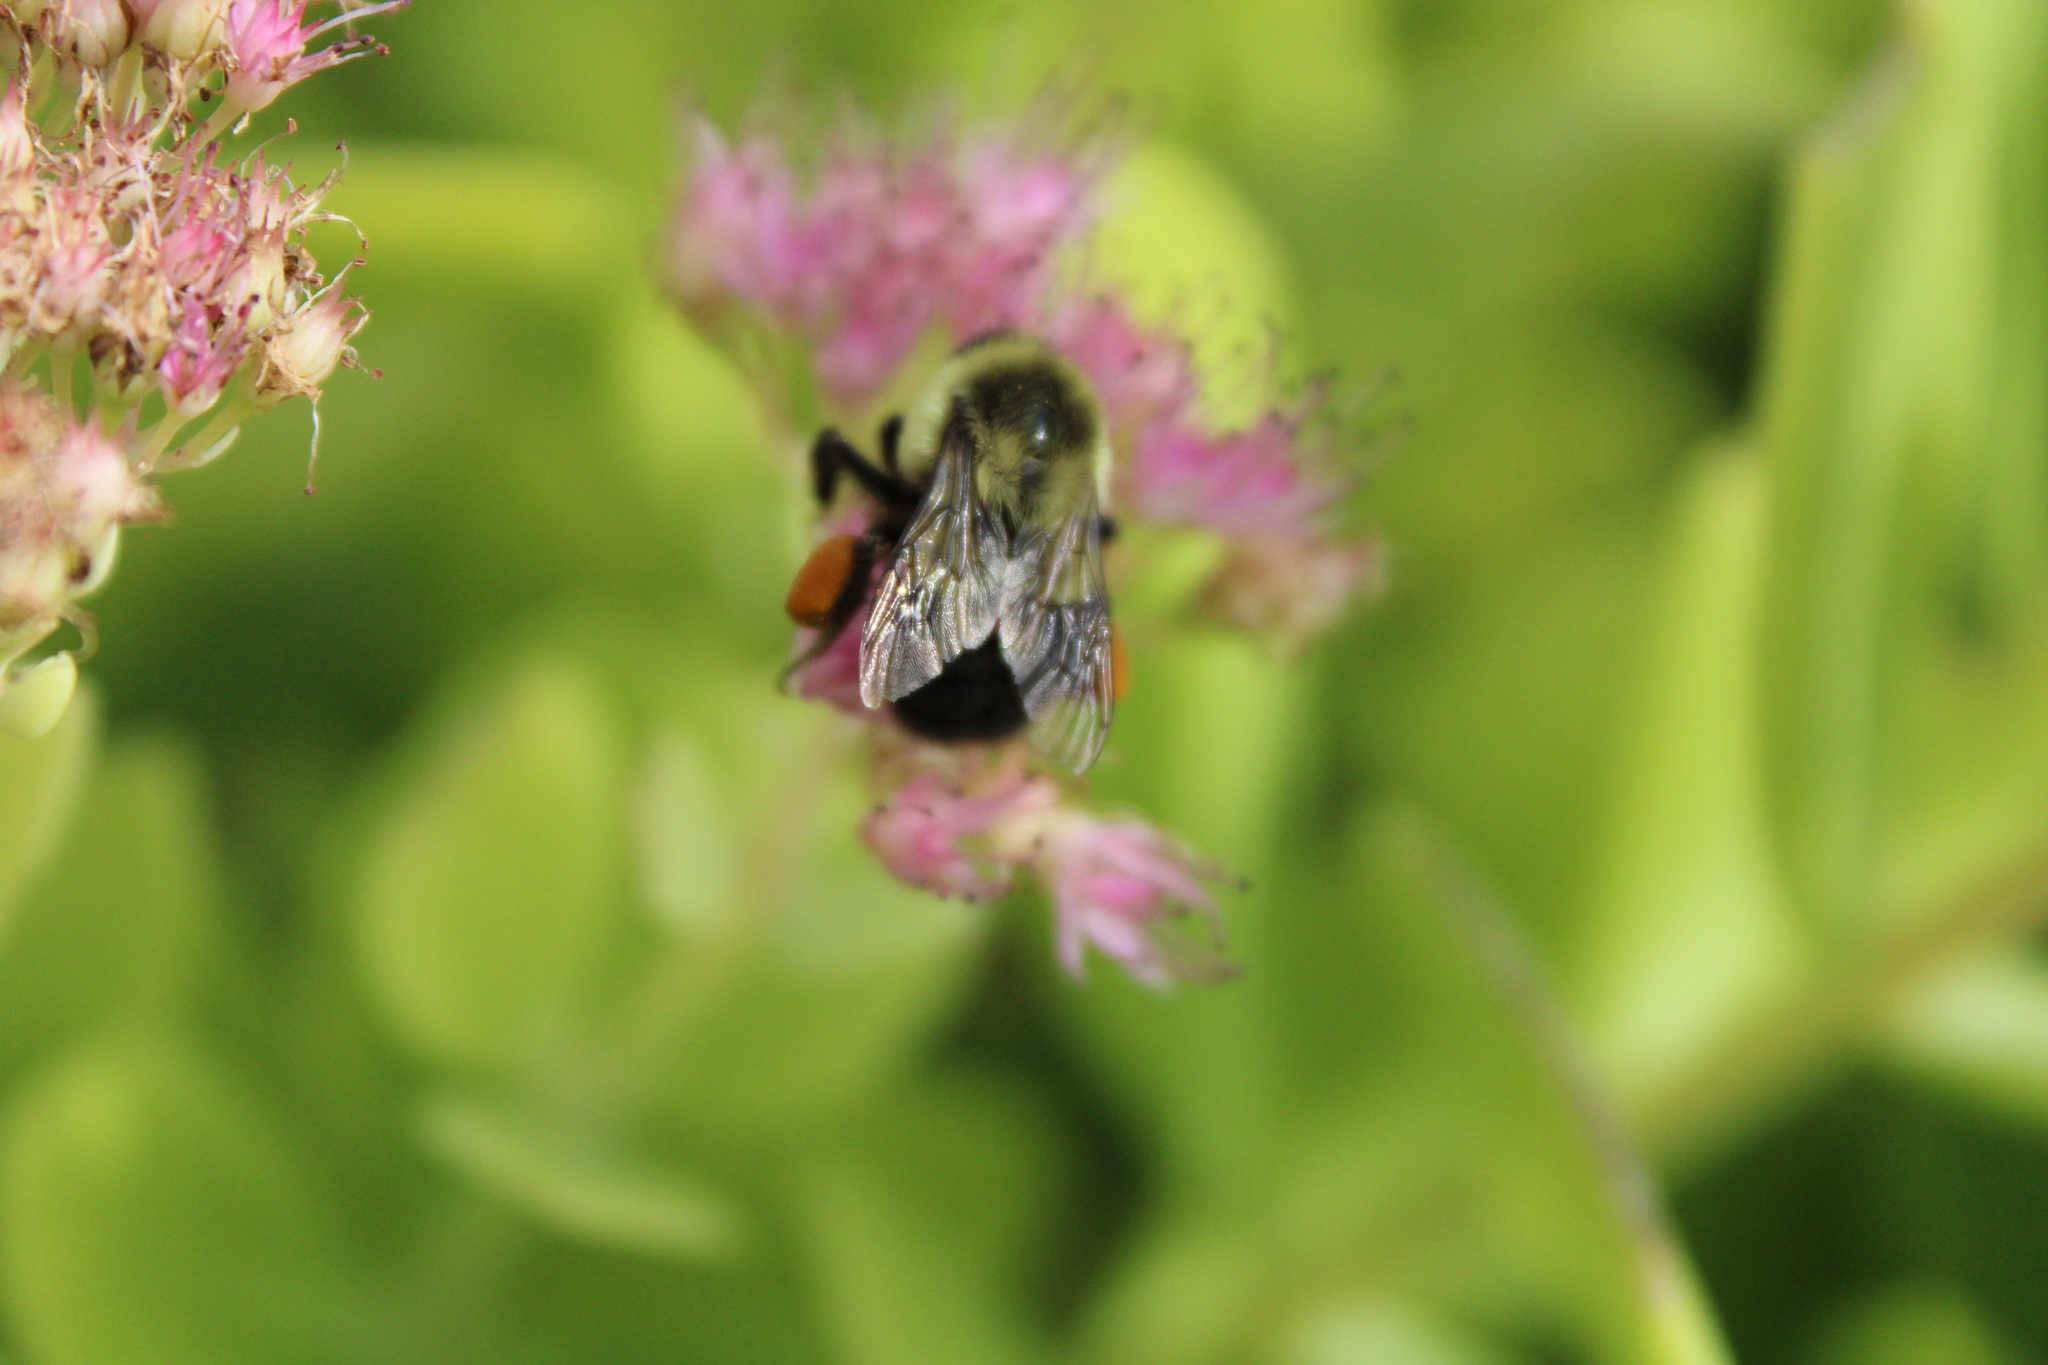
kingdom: Animalia
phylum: Arthropoda
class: Insecta
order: Hymenoptera
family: Apidae
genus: Bombus
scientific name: Bombus impatiens
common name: Common eastern bumble bee
